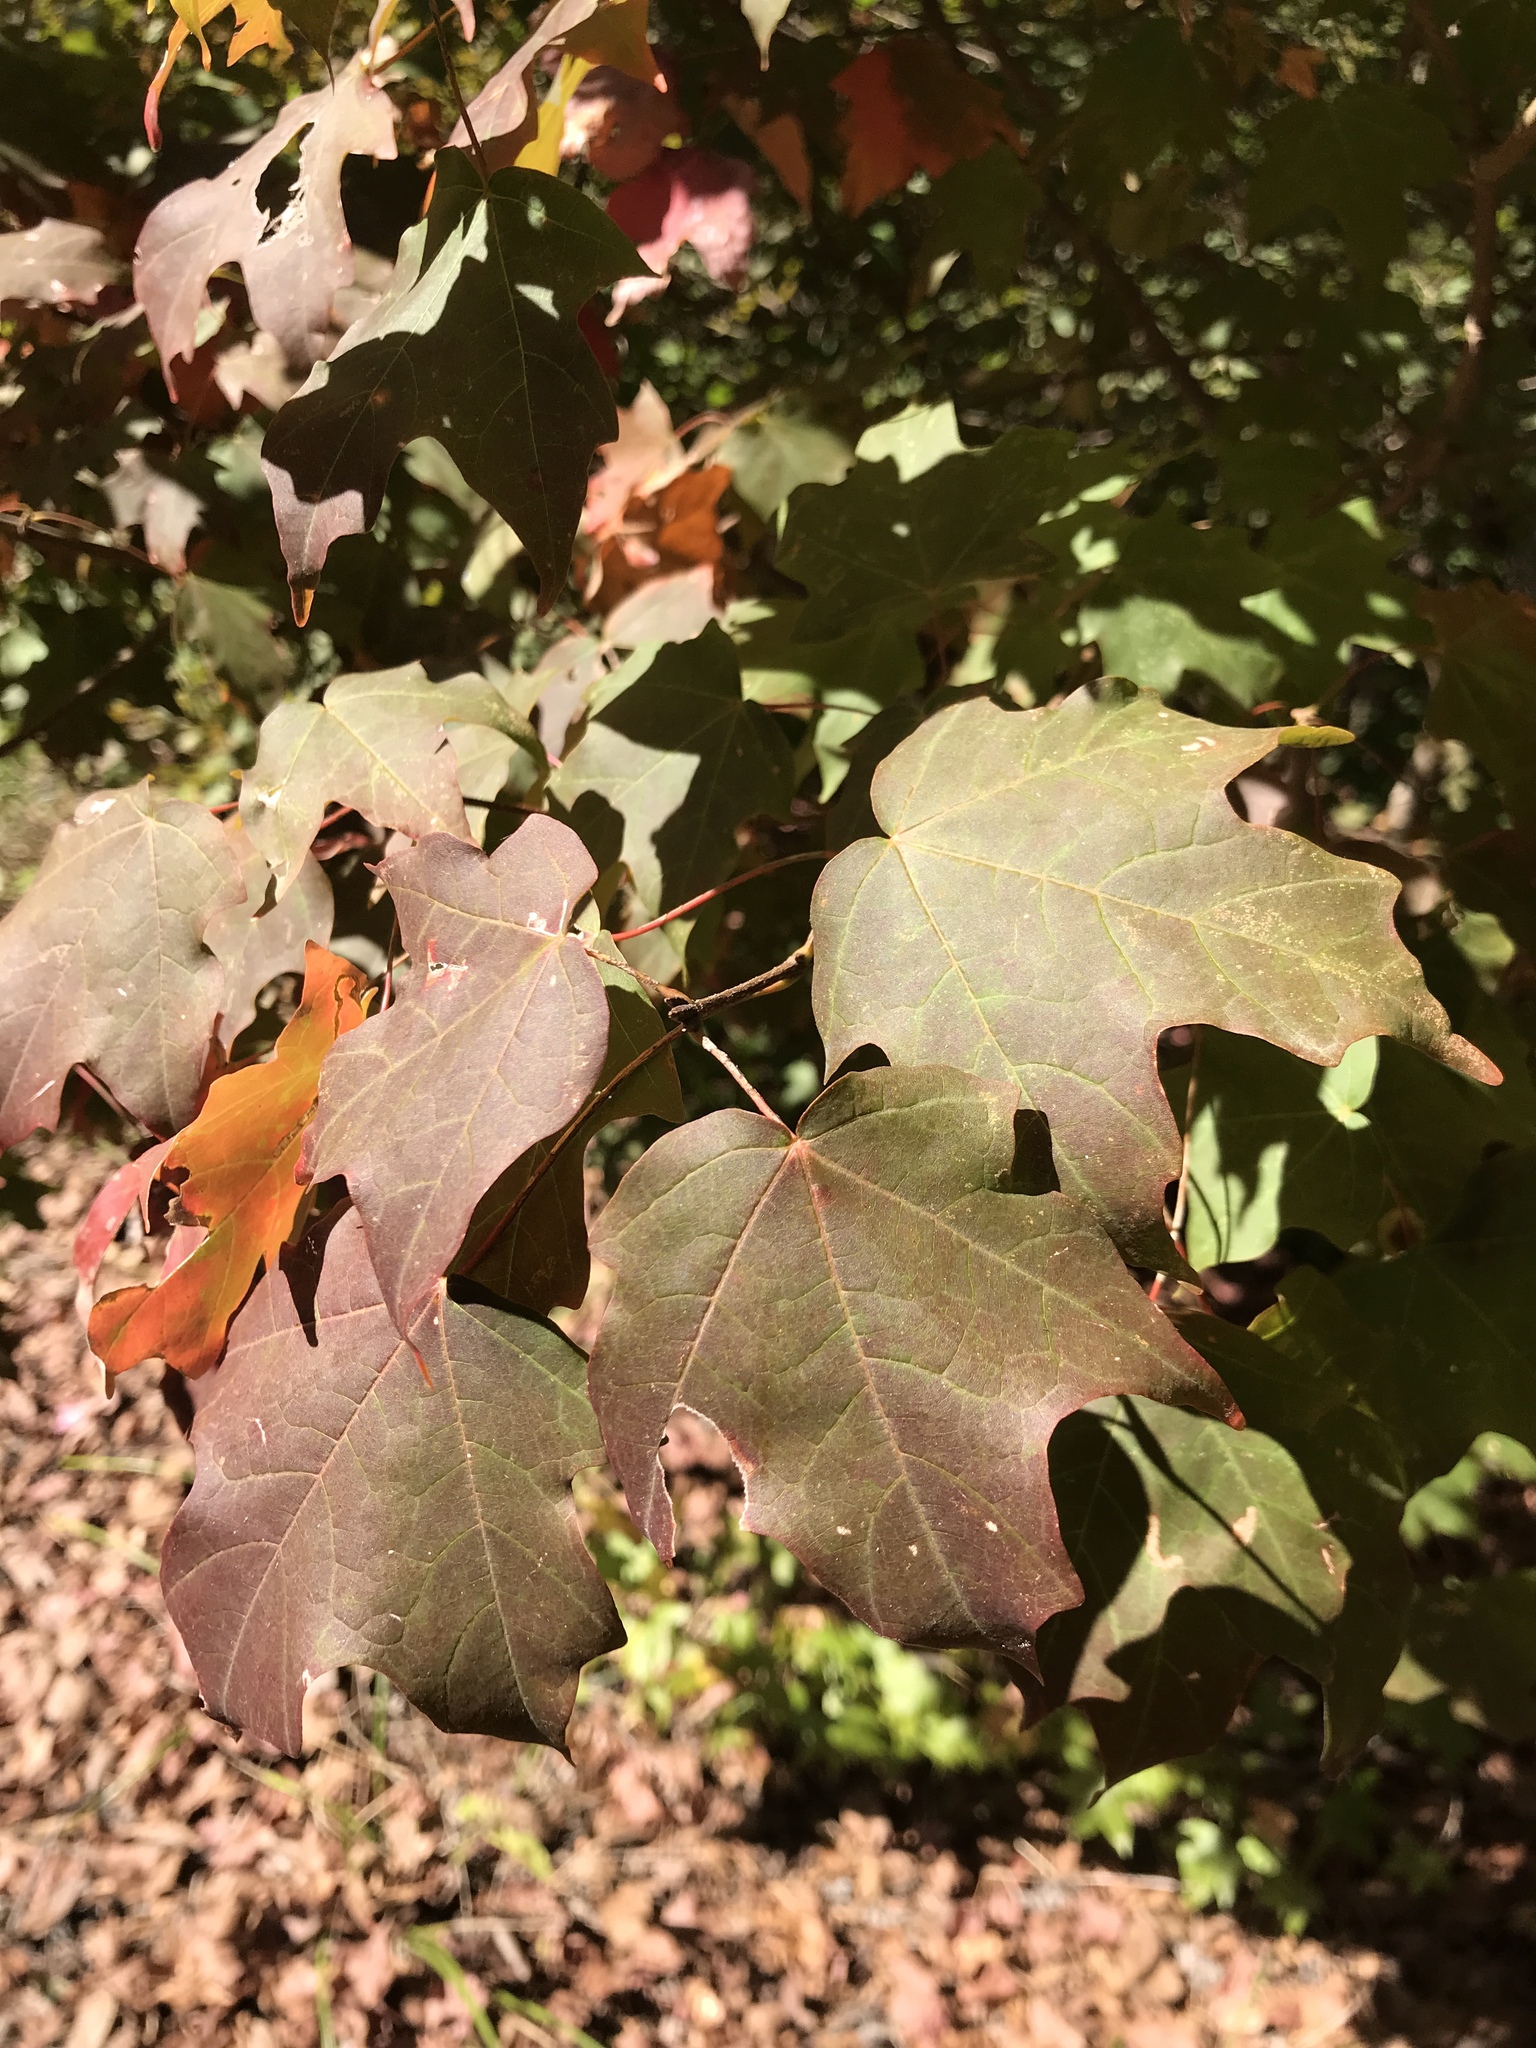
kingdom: Plantae
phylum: Tracheophyta
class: Magnoliopsida
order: Sapindales
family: Sapindaceae
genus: Acer
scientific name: Acer leucoderme
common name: Chalk maple
